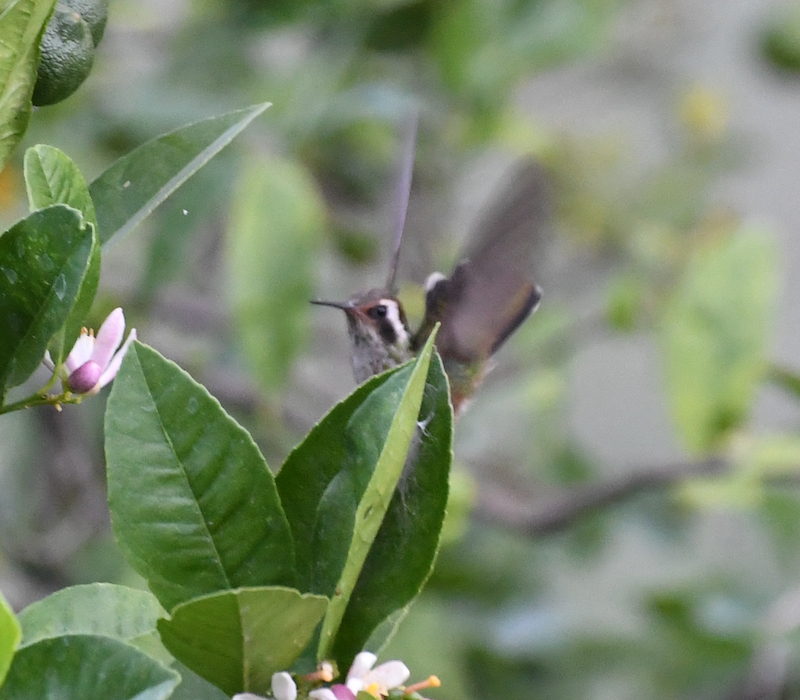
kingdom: Animalia
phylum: Chordata
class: Aves
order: Apodiformes
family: Trochilidae
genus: Basilinna
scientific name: Basilinna leucotis
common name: White-eared hummingbird
